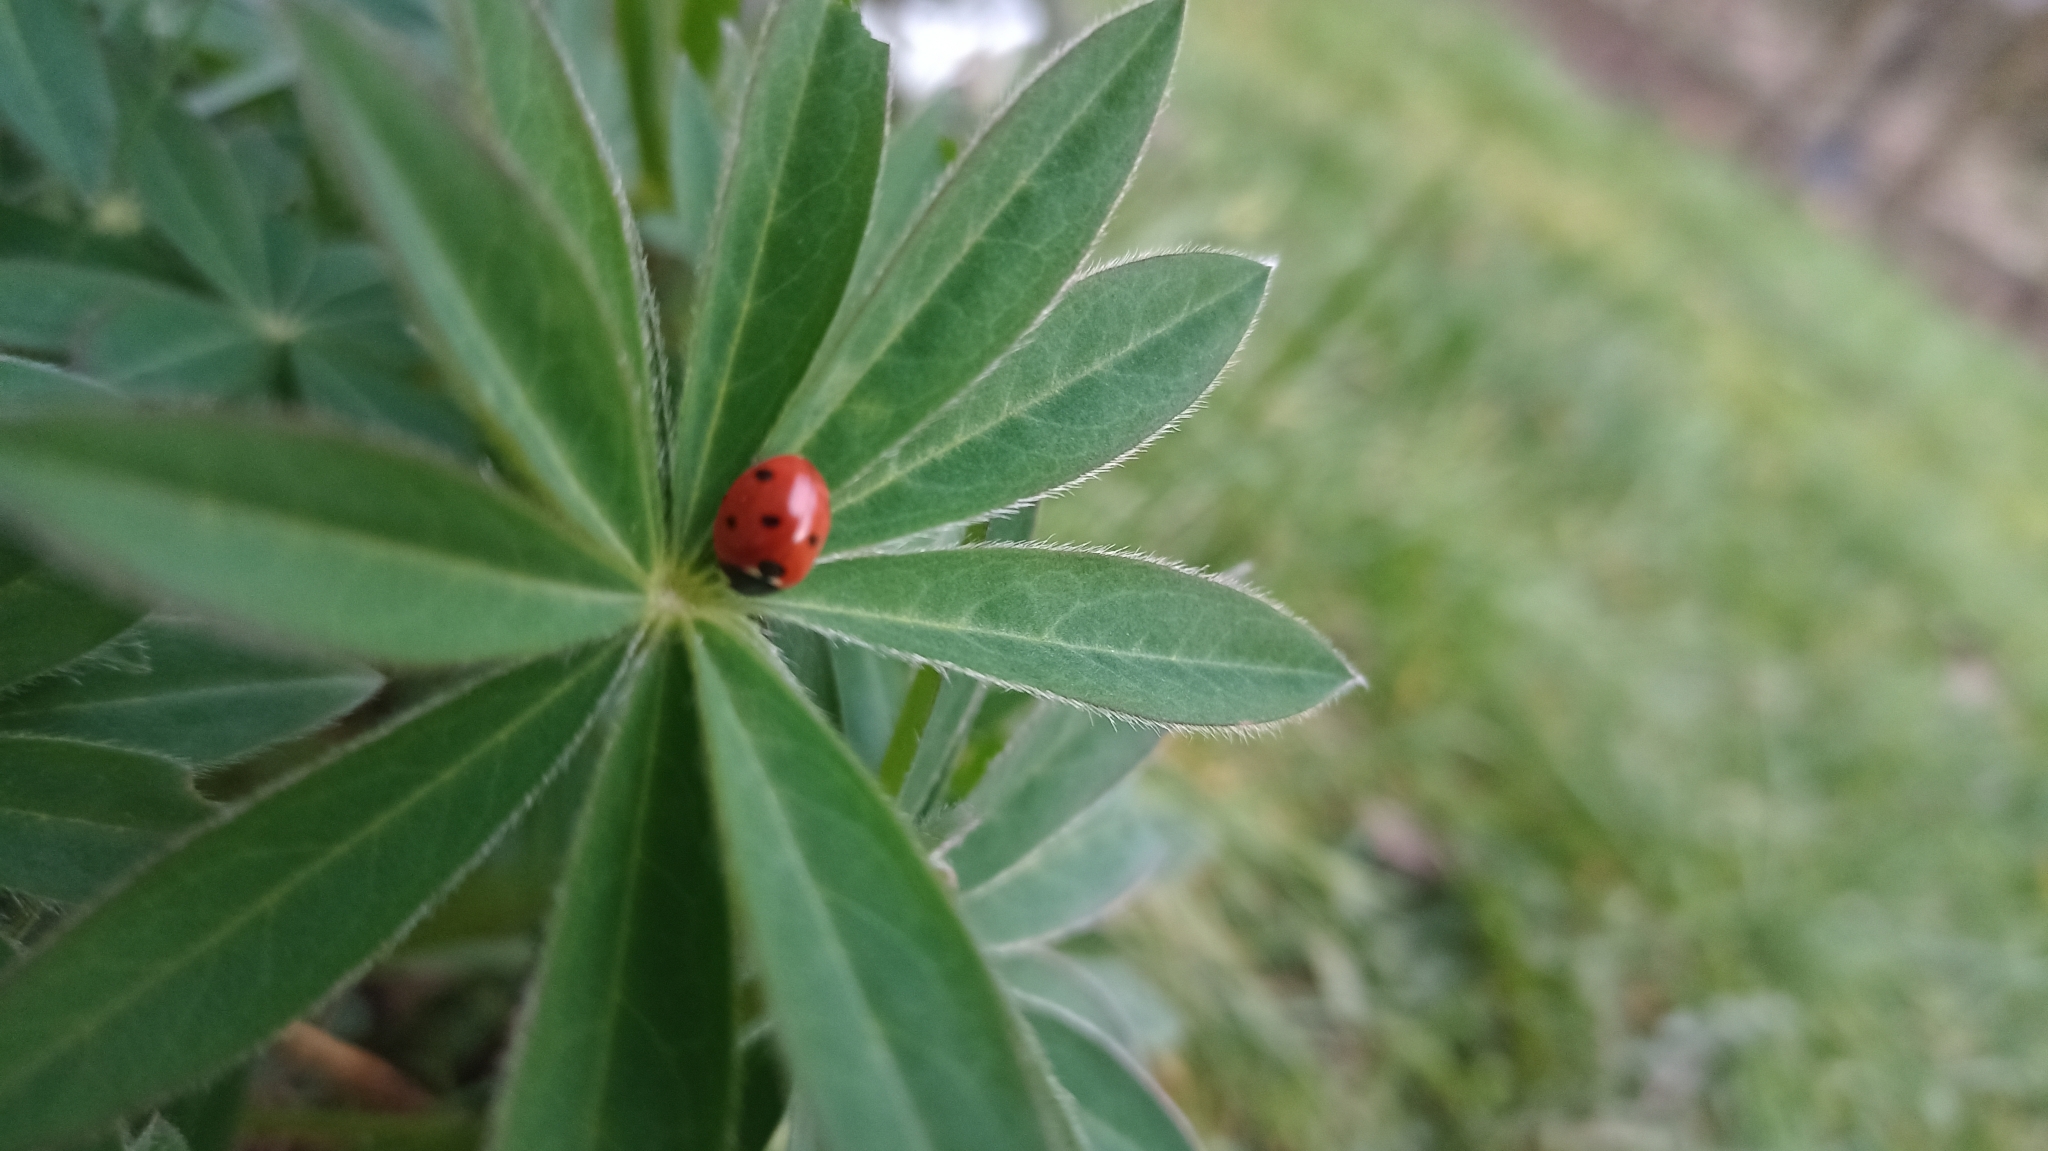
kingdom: Animalia
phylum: Arthropoda
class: Insecta
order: Coleoptera
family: Coccinellidae
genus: Coccinella
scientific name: Coccinella septempunctata
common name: Sevenspotted lady beetle
